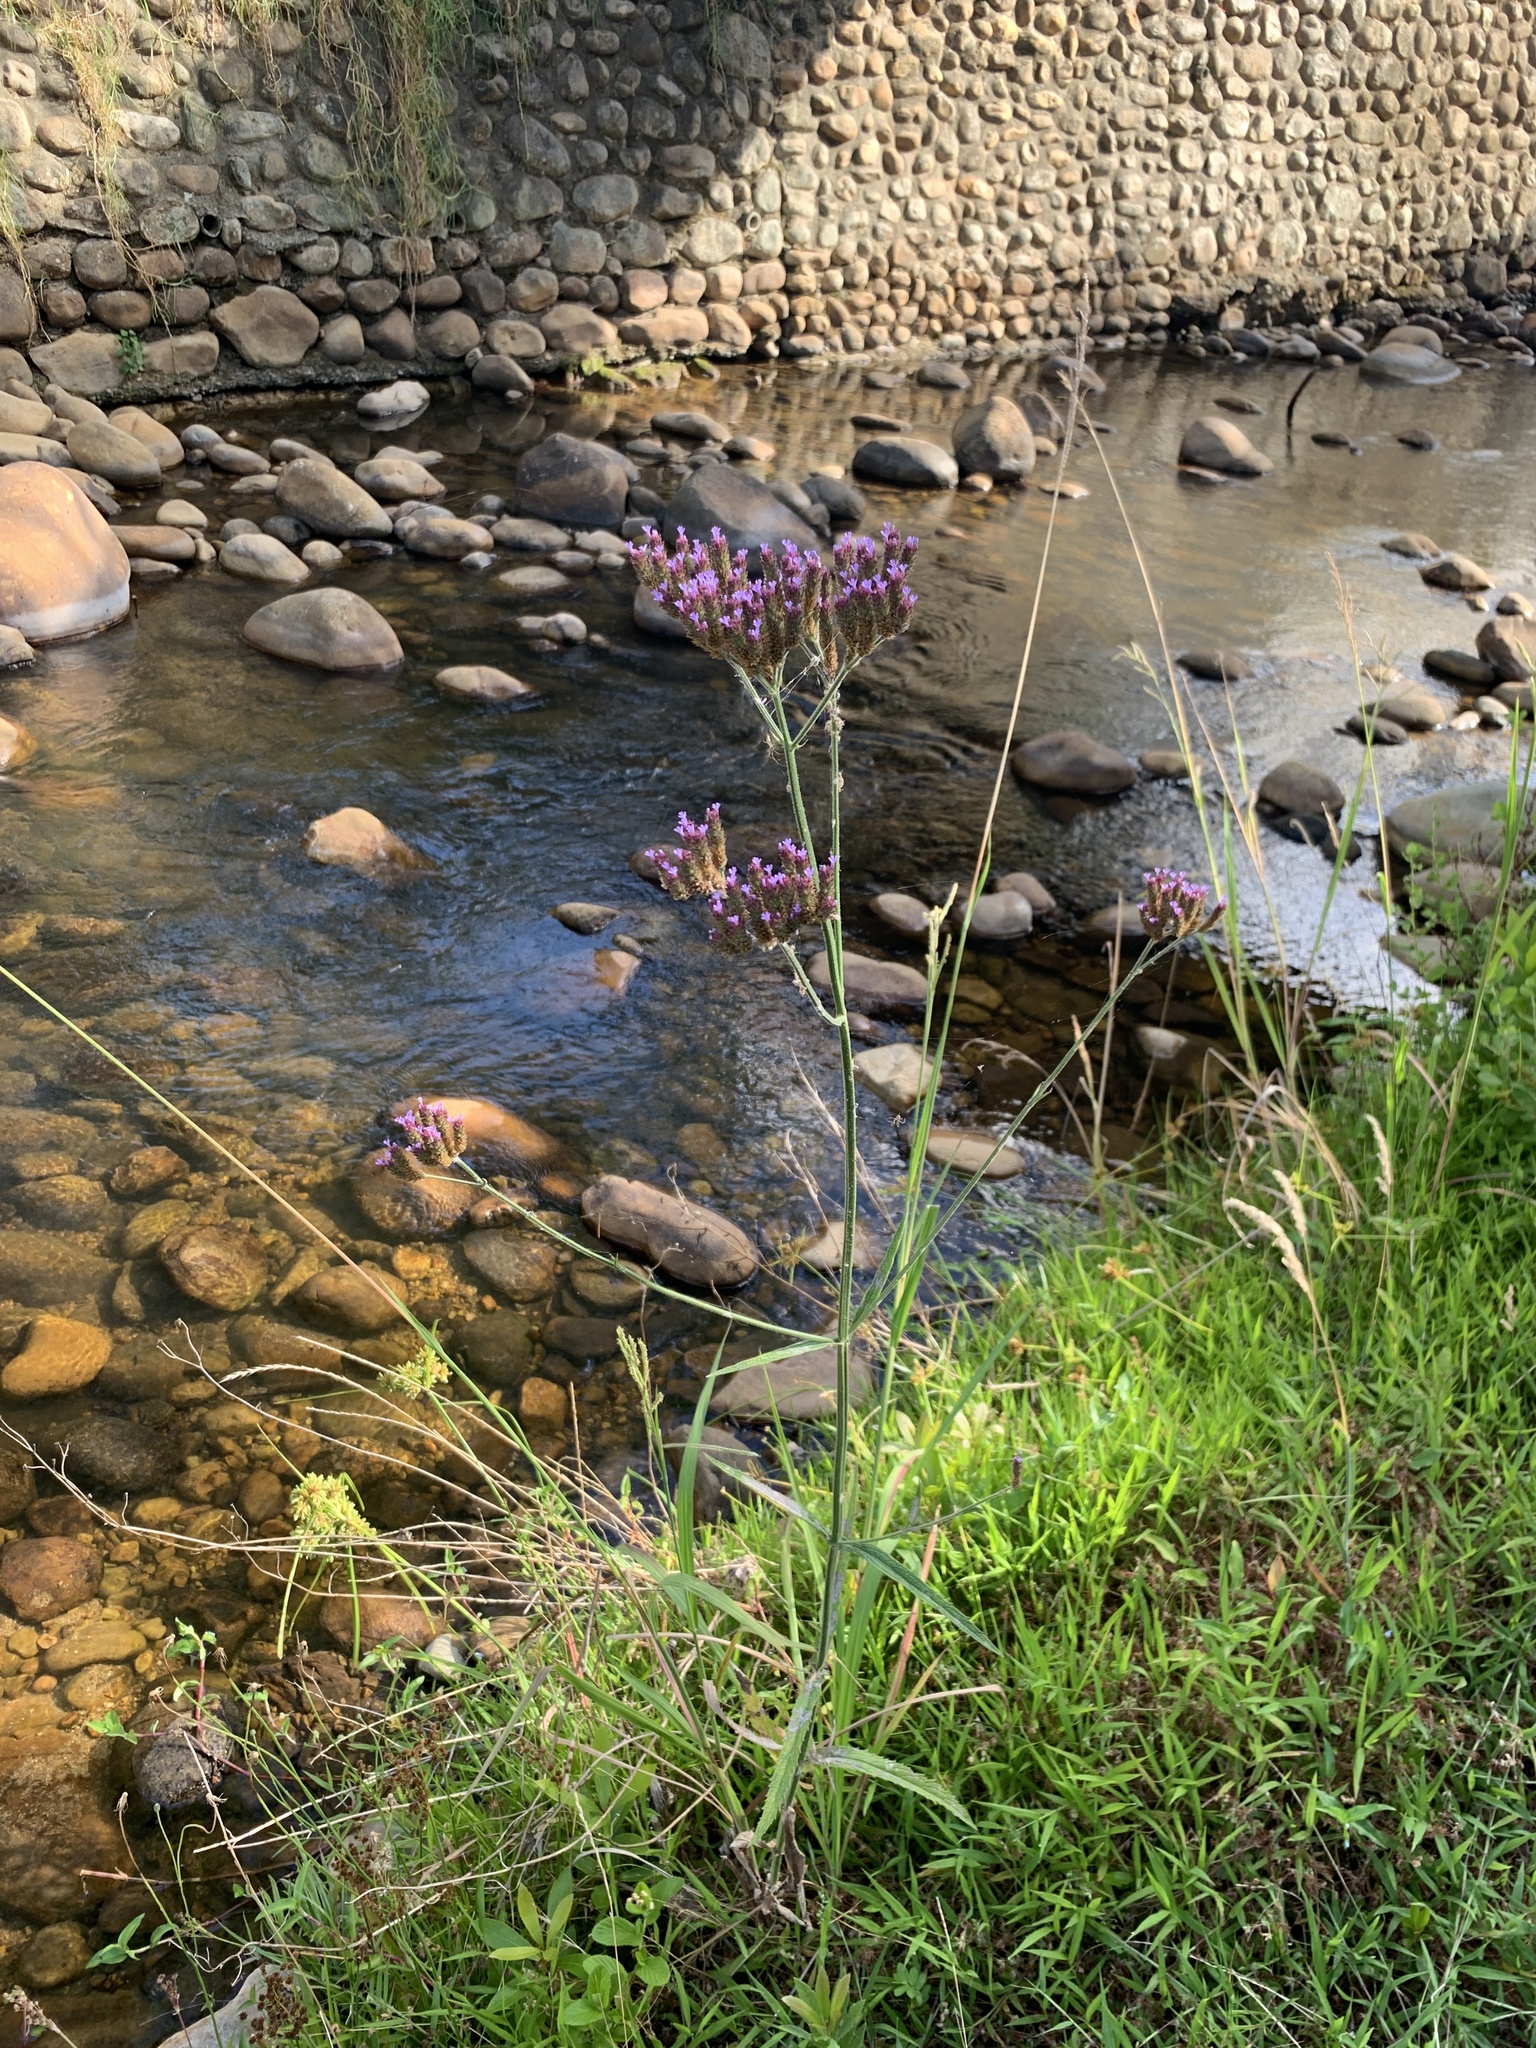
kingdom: Plantae
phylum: Tracheophyta
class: Magnoliopsida
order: Lamiales
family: Verbenaceae
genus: Verbena
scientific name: Verbena bonariensis
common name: Purpletop vervain
